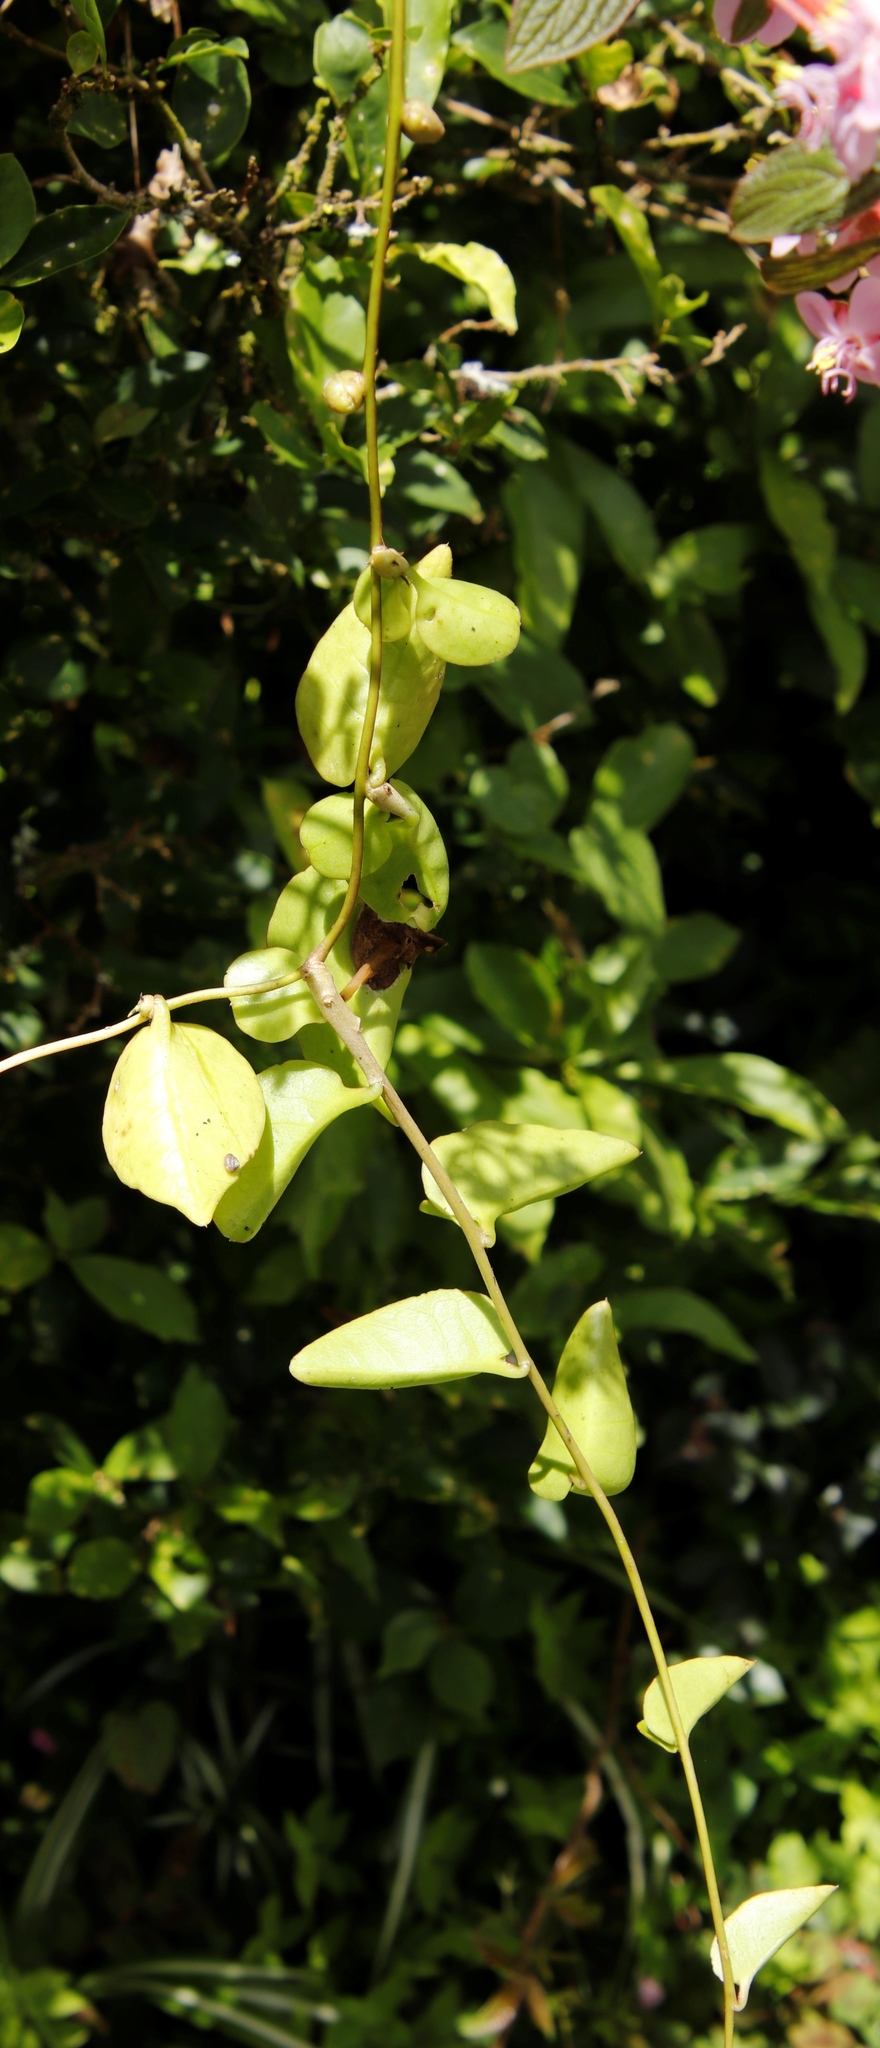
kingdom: Plantae
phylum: Tracheophyta
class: Magnoliopsida
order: Caryophyllales
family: Basellaceae
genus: Anredera
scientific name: Anredera cordifolia
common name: Heartleaf madeiravine
